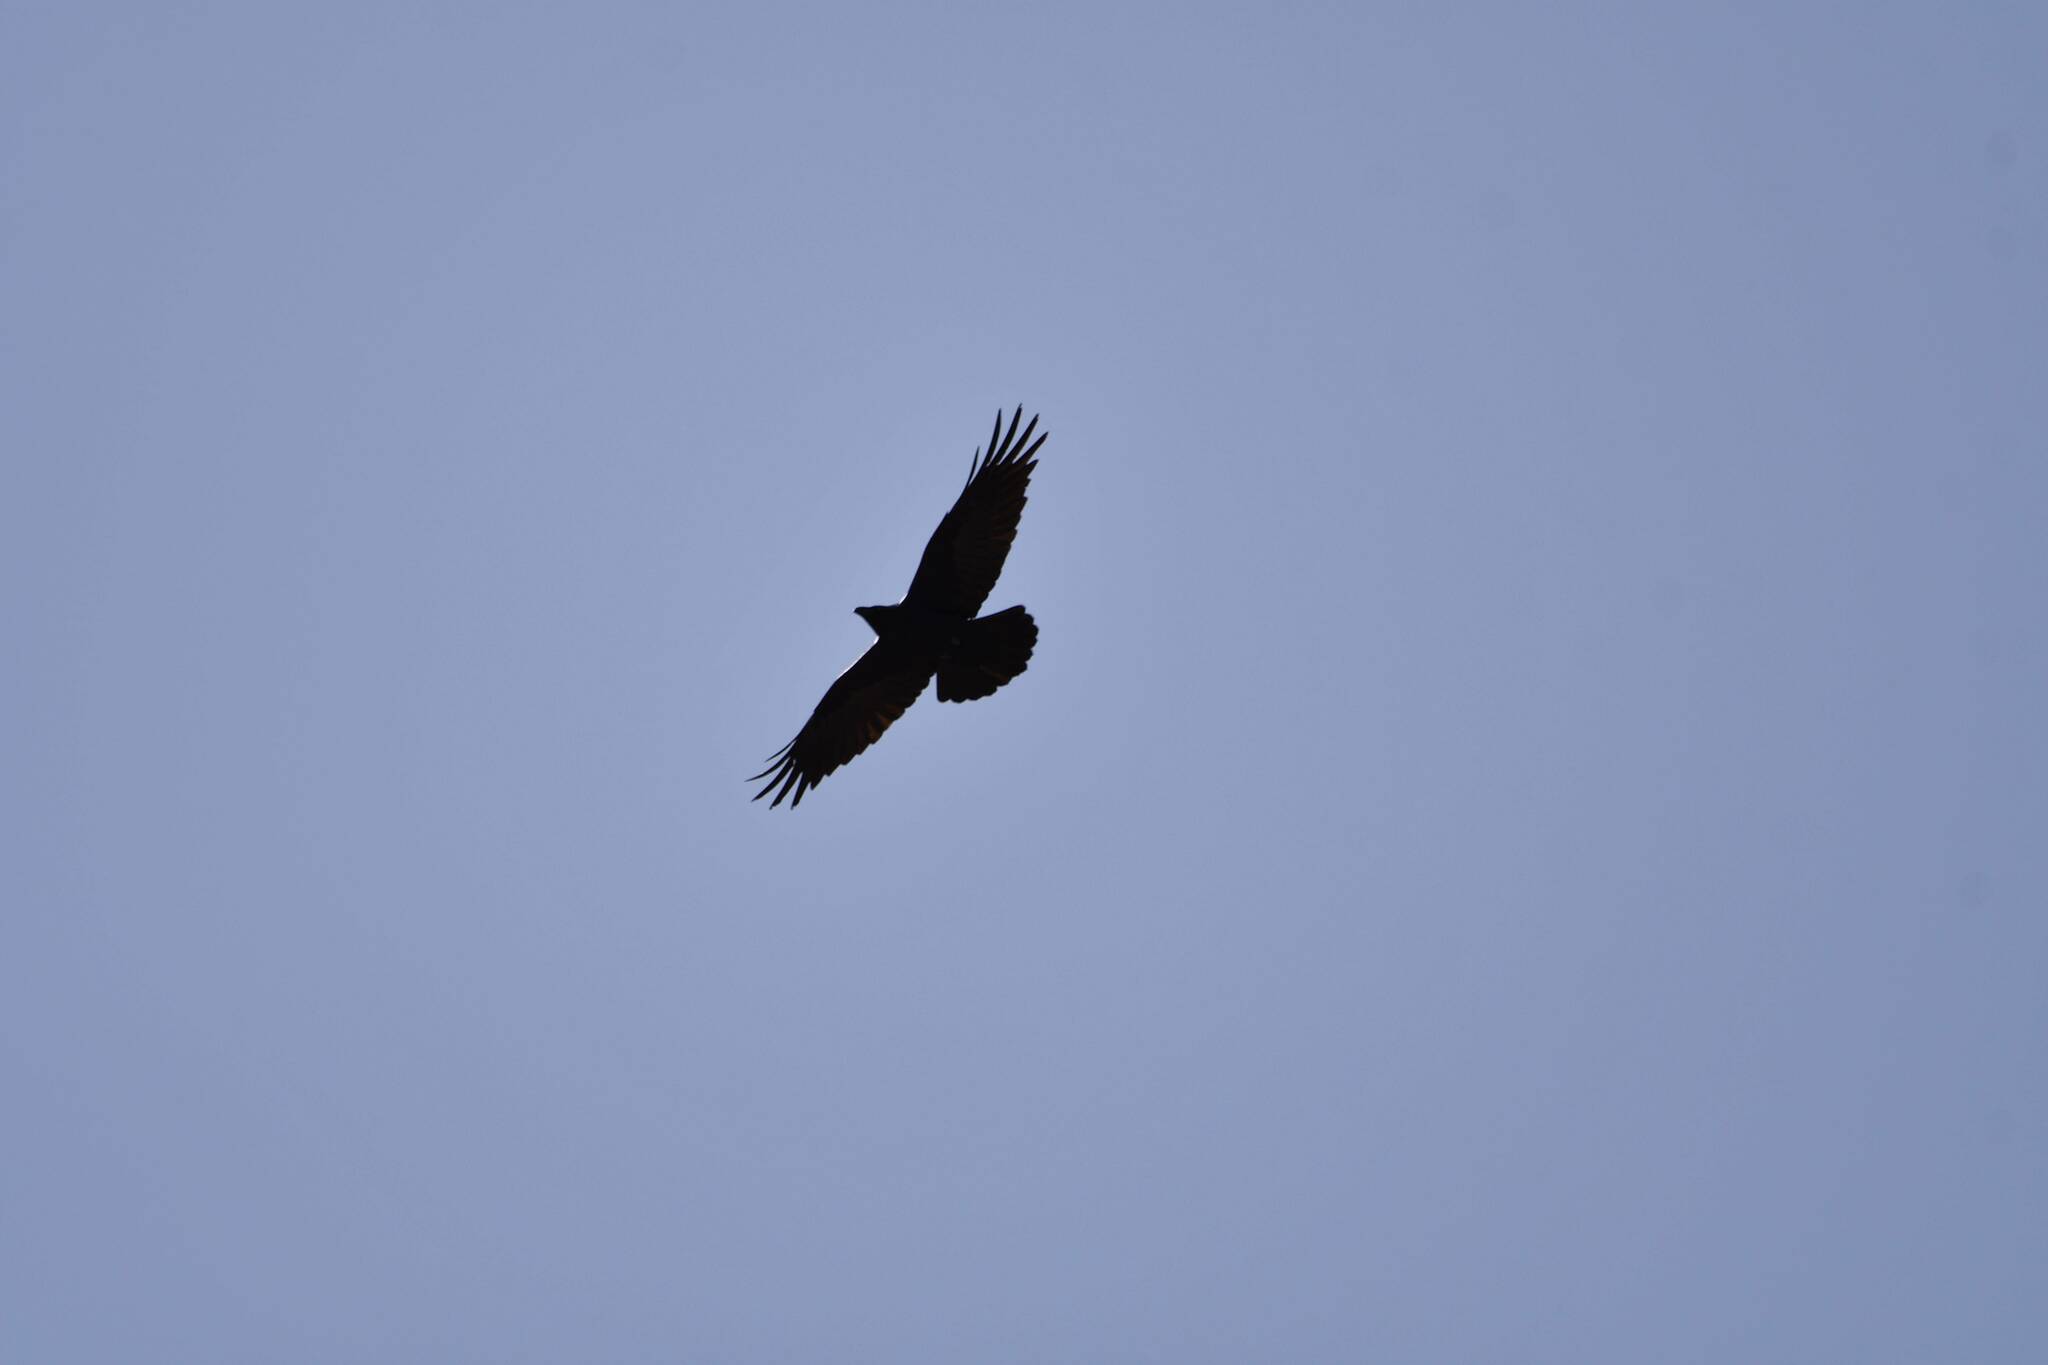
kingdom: Animalia
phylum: Chordata
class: Aves
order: Passeriformes
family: Corvidae
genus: Corvus
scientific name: Corvus corax
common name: Common raven
